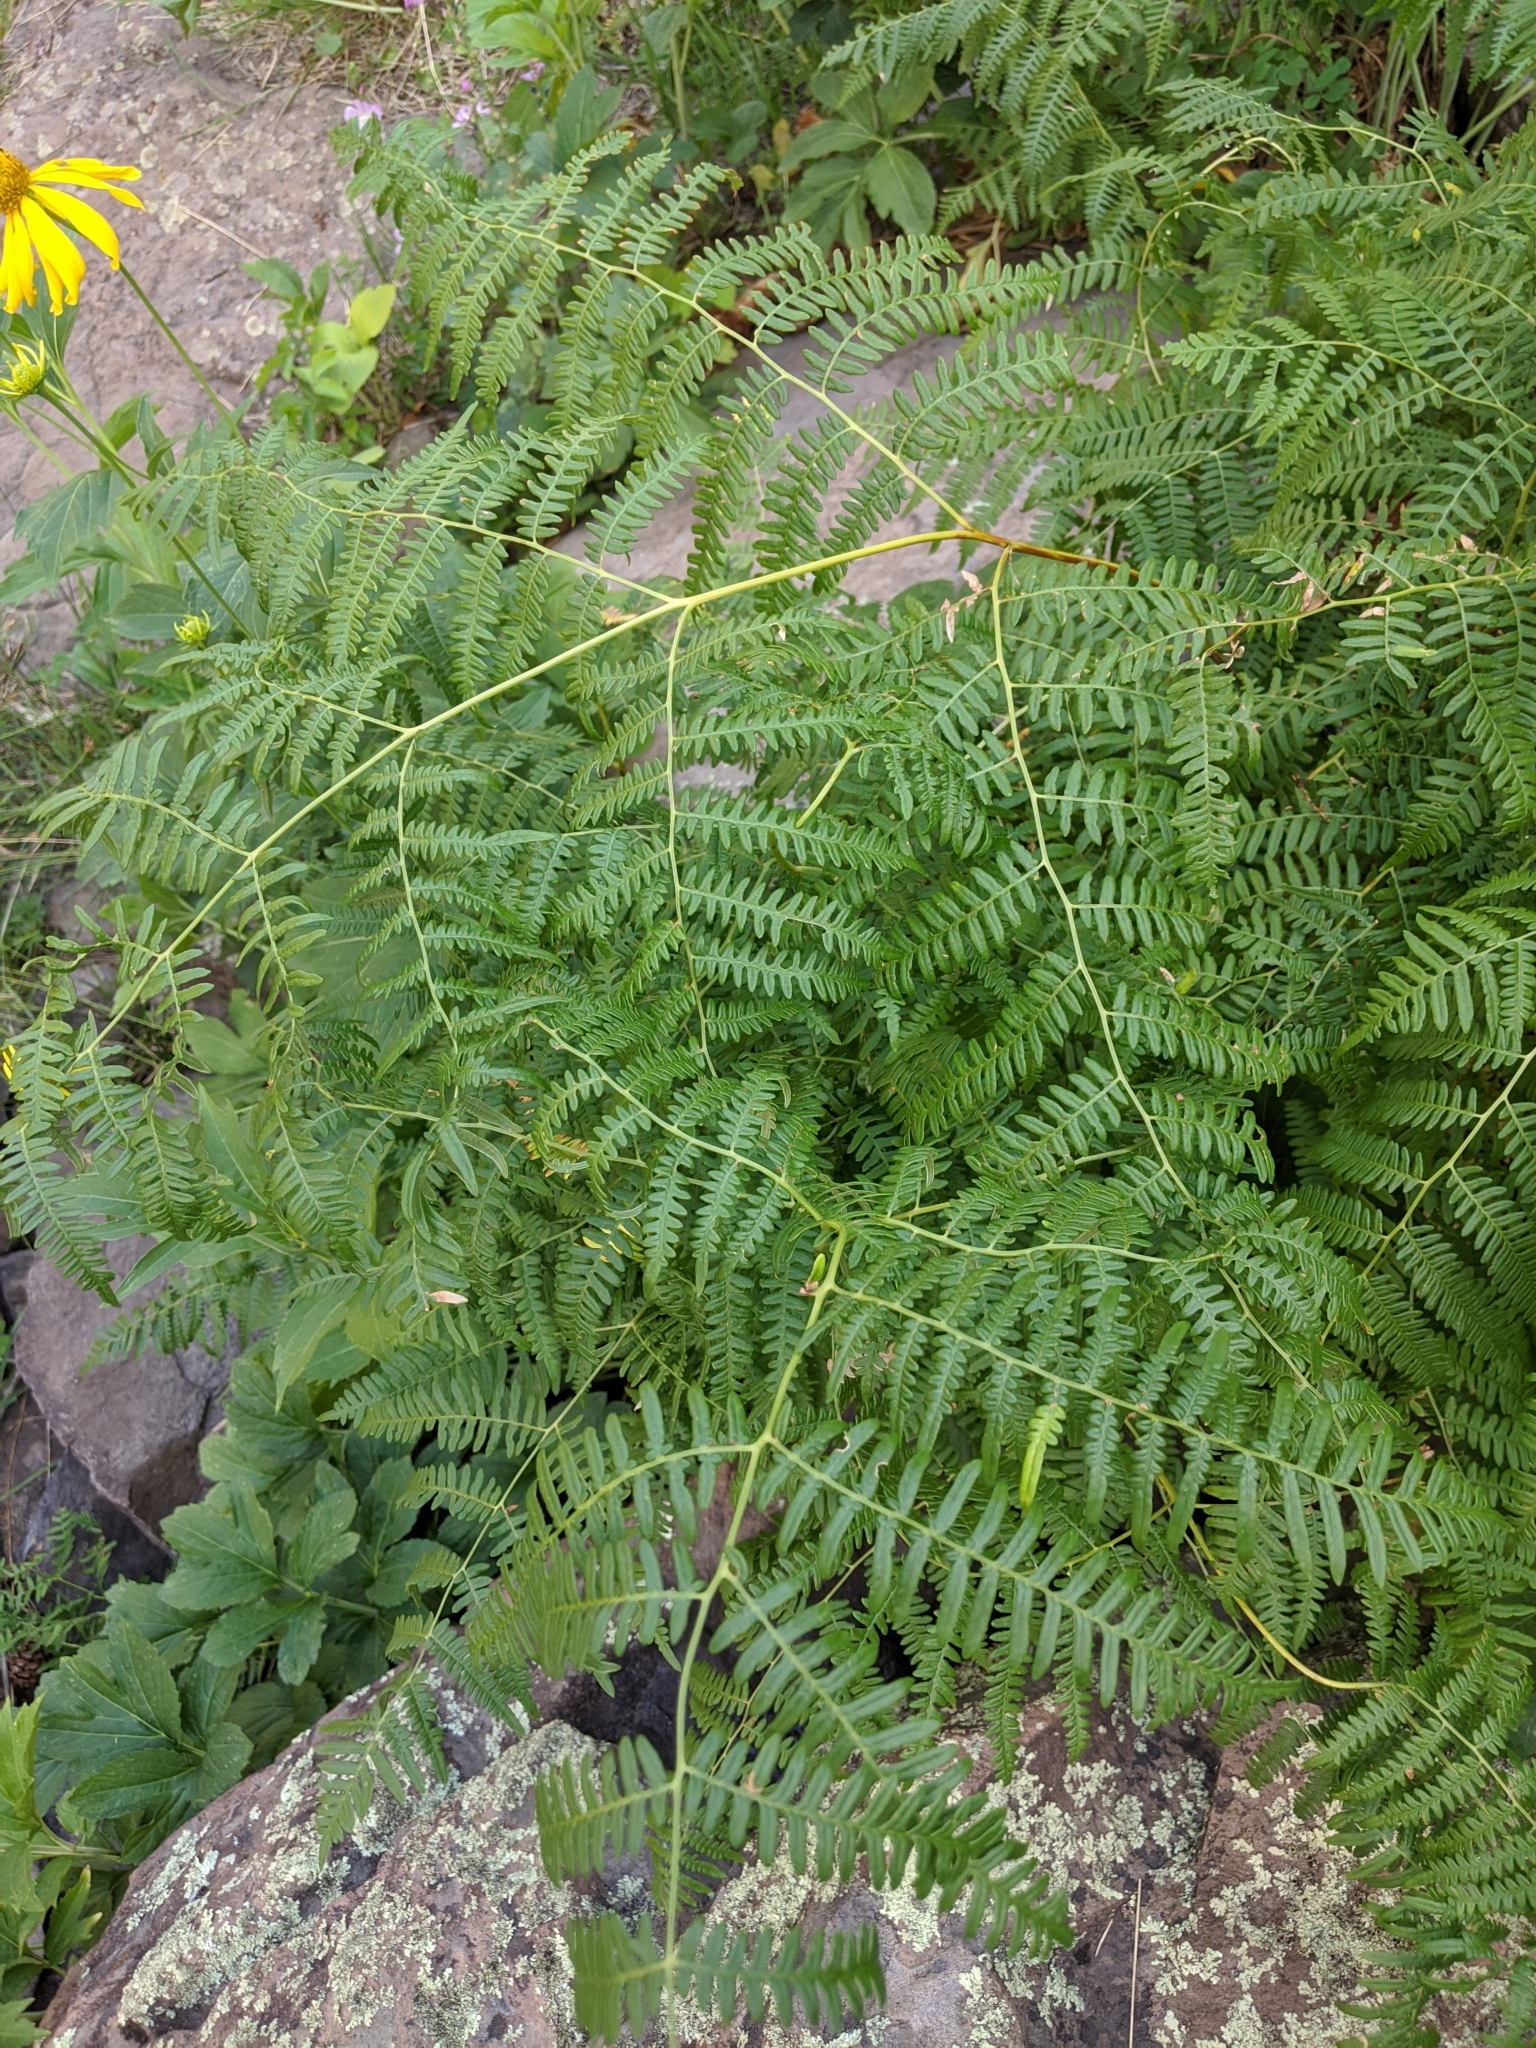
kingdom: Plantae
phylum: Tracheophyta
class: Polypodiopsida
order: Polypodiales
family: Dennstaedtiaceae
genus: Pteridium
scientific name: Pteridium aquilinum
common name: Bracken
